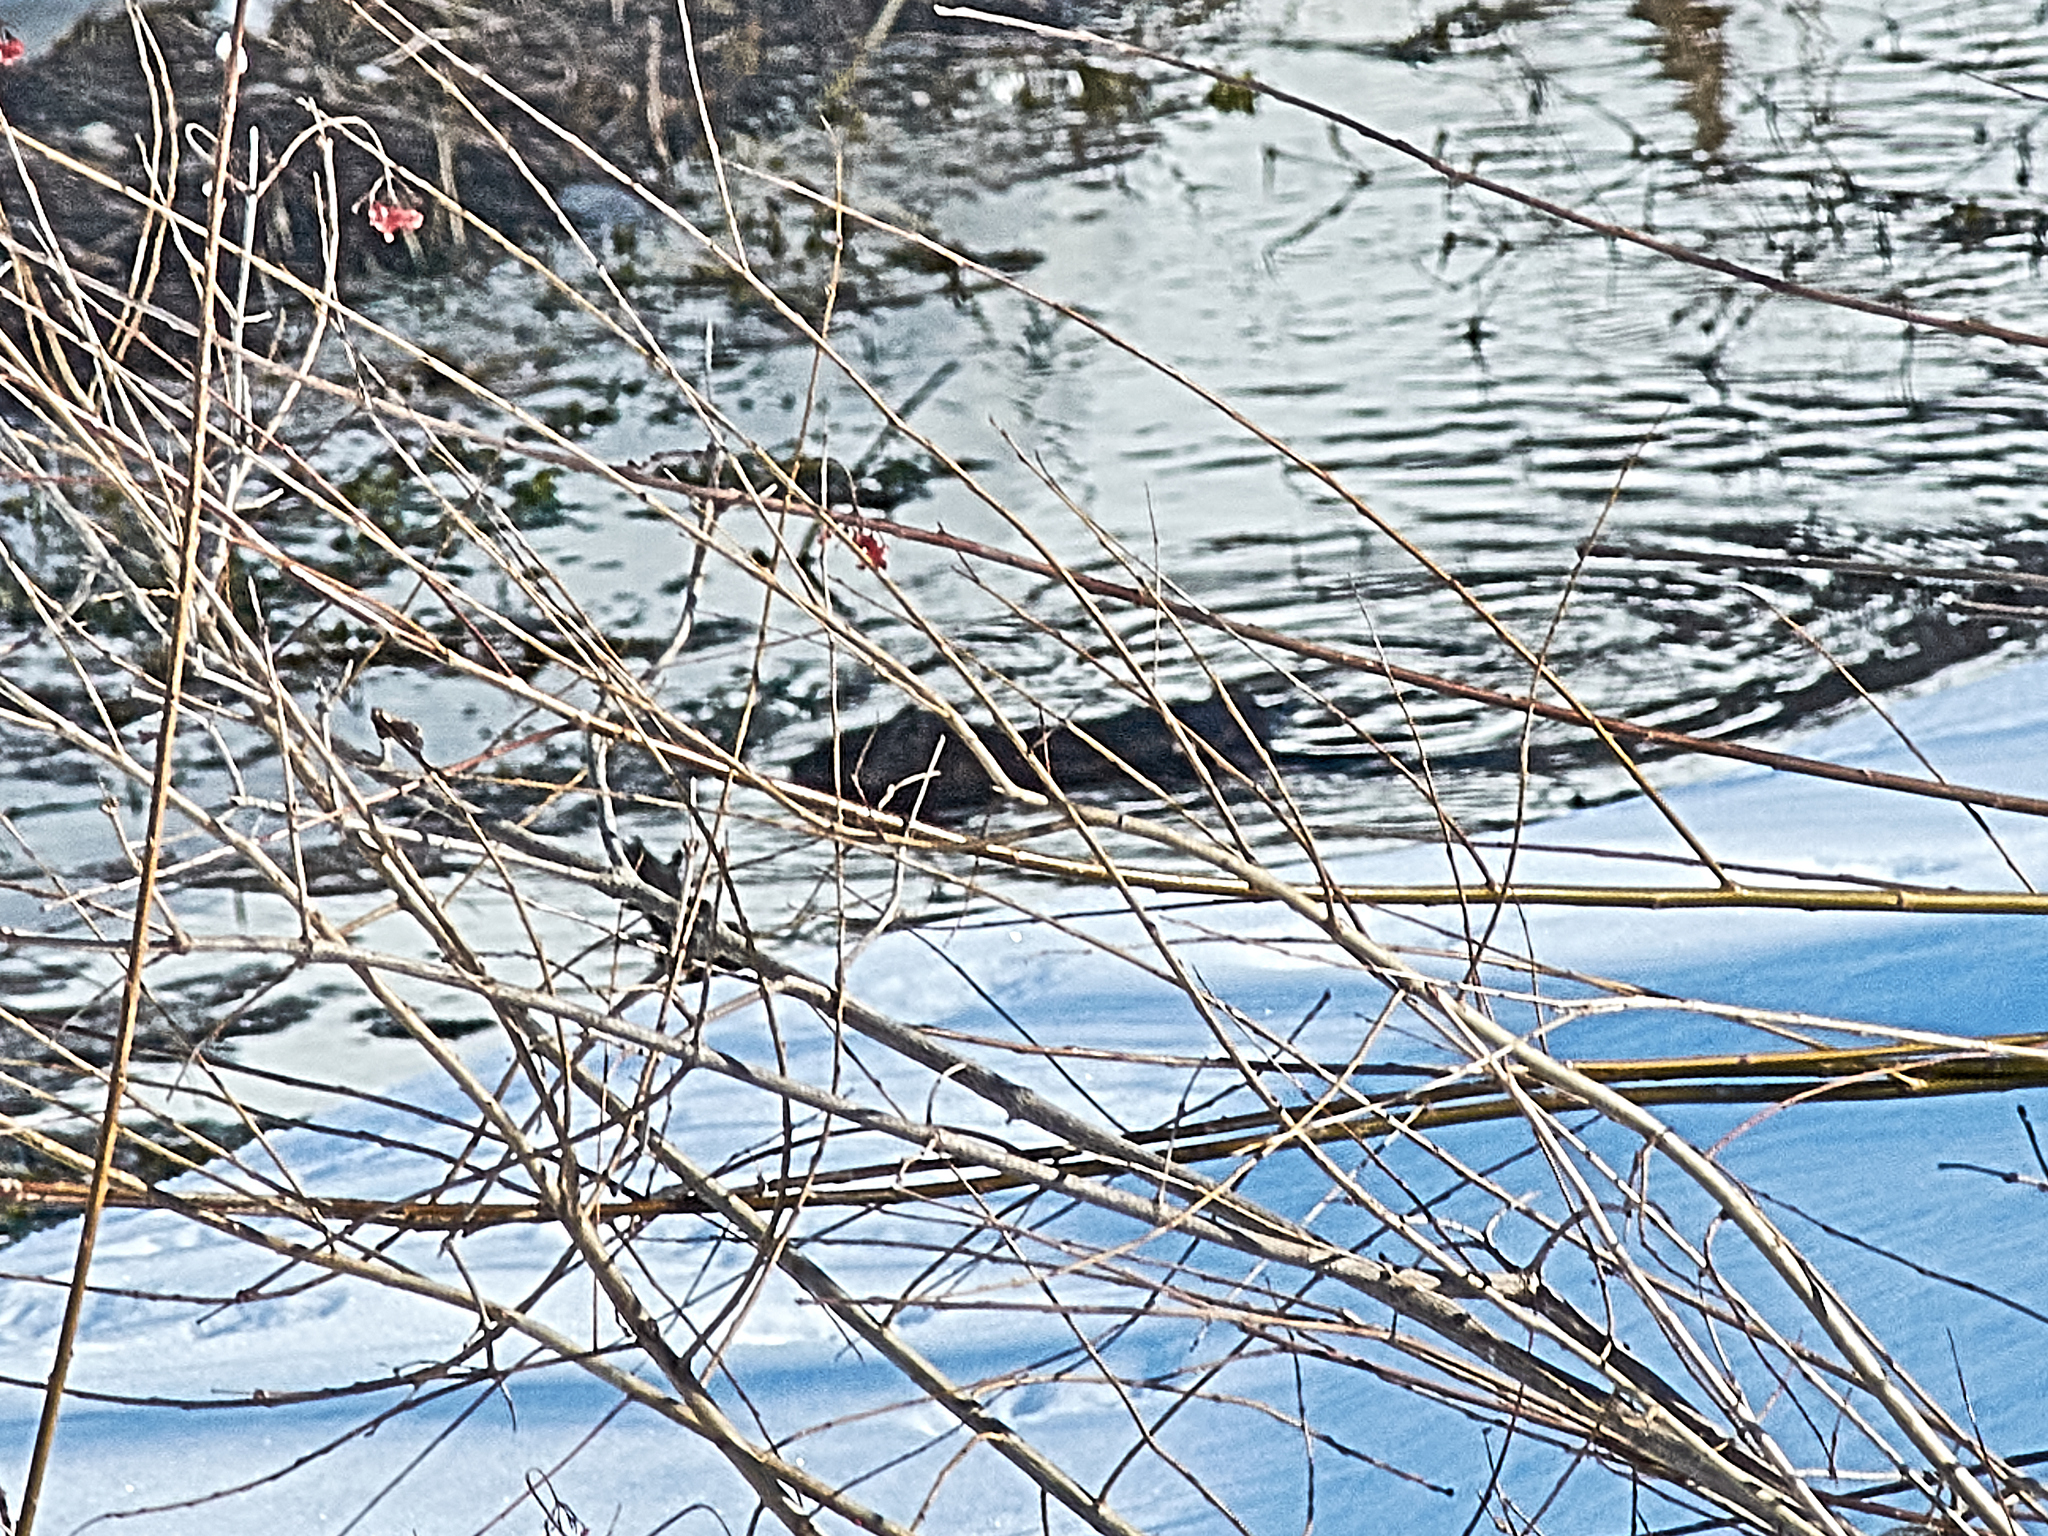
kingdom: Animalia
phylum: Chordata
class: Mammalia
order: Rodentia
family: Cricetidae
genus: Ondatra
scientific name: Ondatra zibethicus
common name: Muskrat
